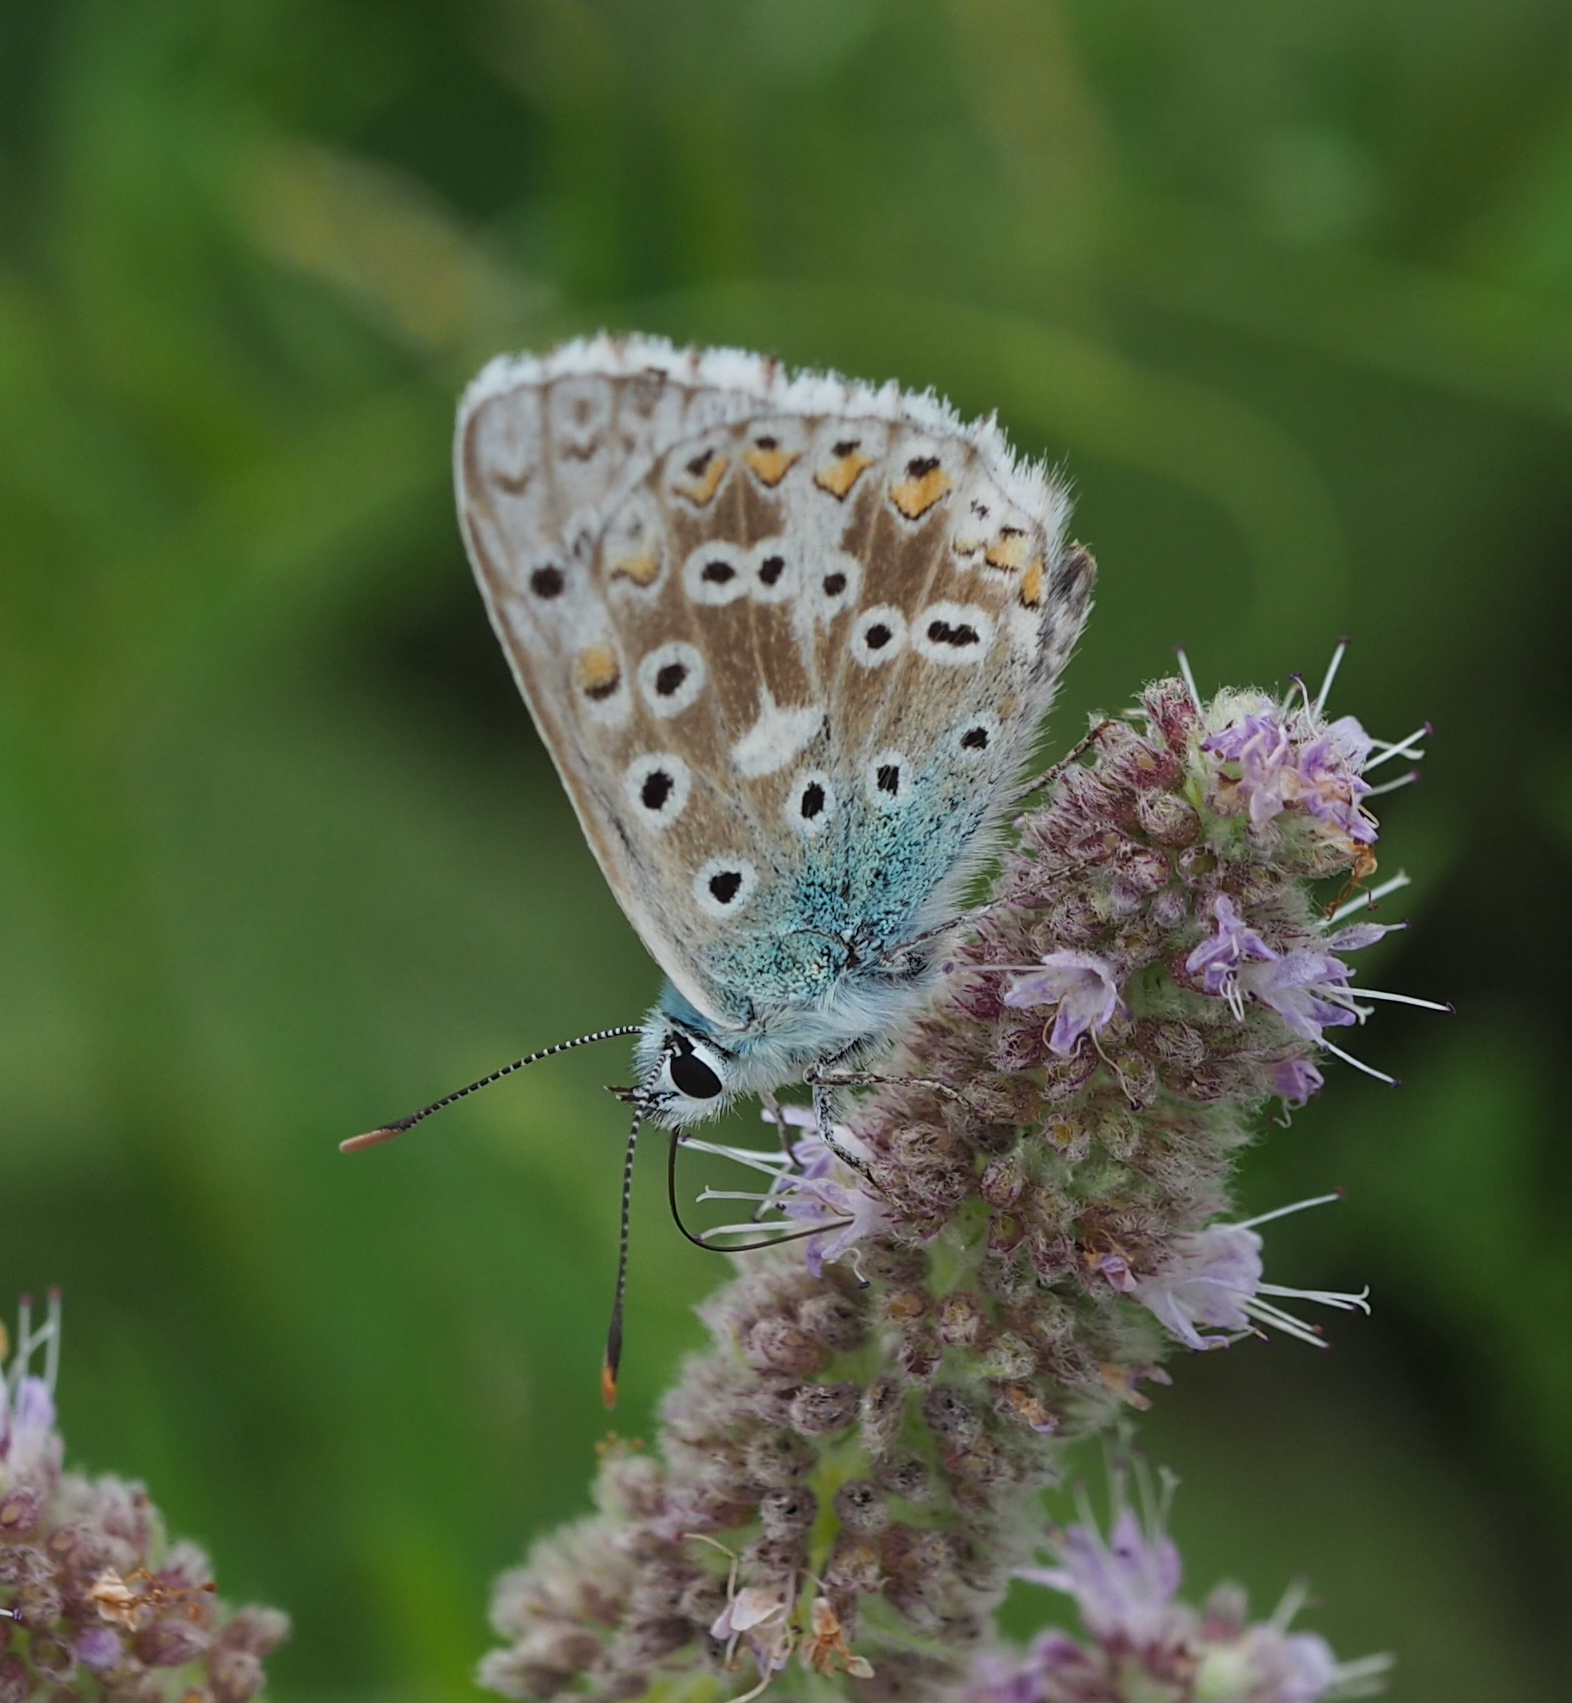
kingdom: Animalia
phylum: Arthropoda
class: Insecta
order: Lepidoptera
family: Lycaenidae
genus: Lysandra
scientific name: Lysandra coridon
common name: Chalkhill blue
